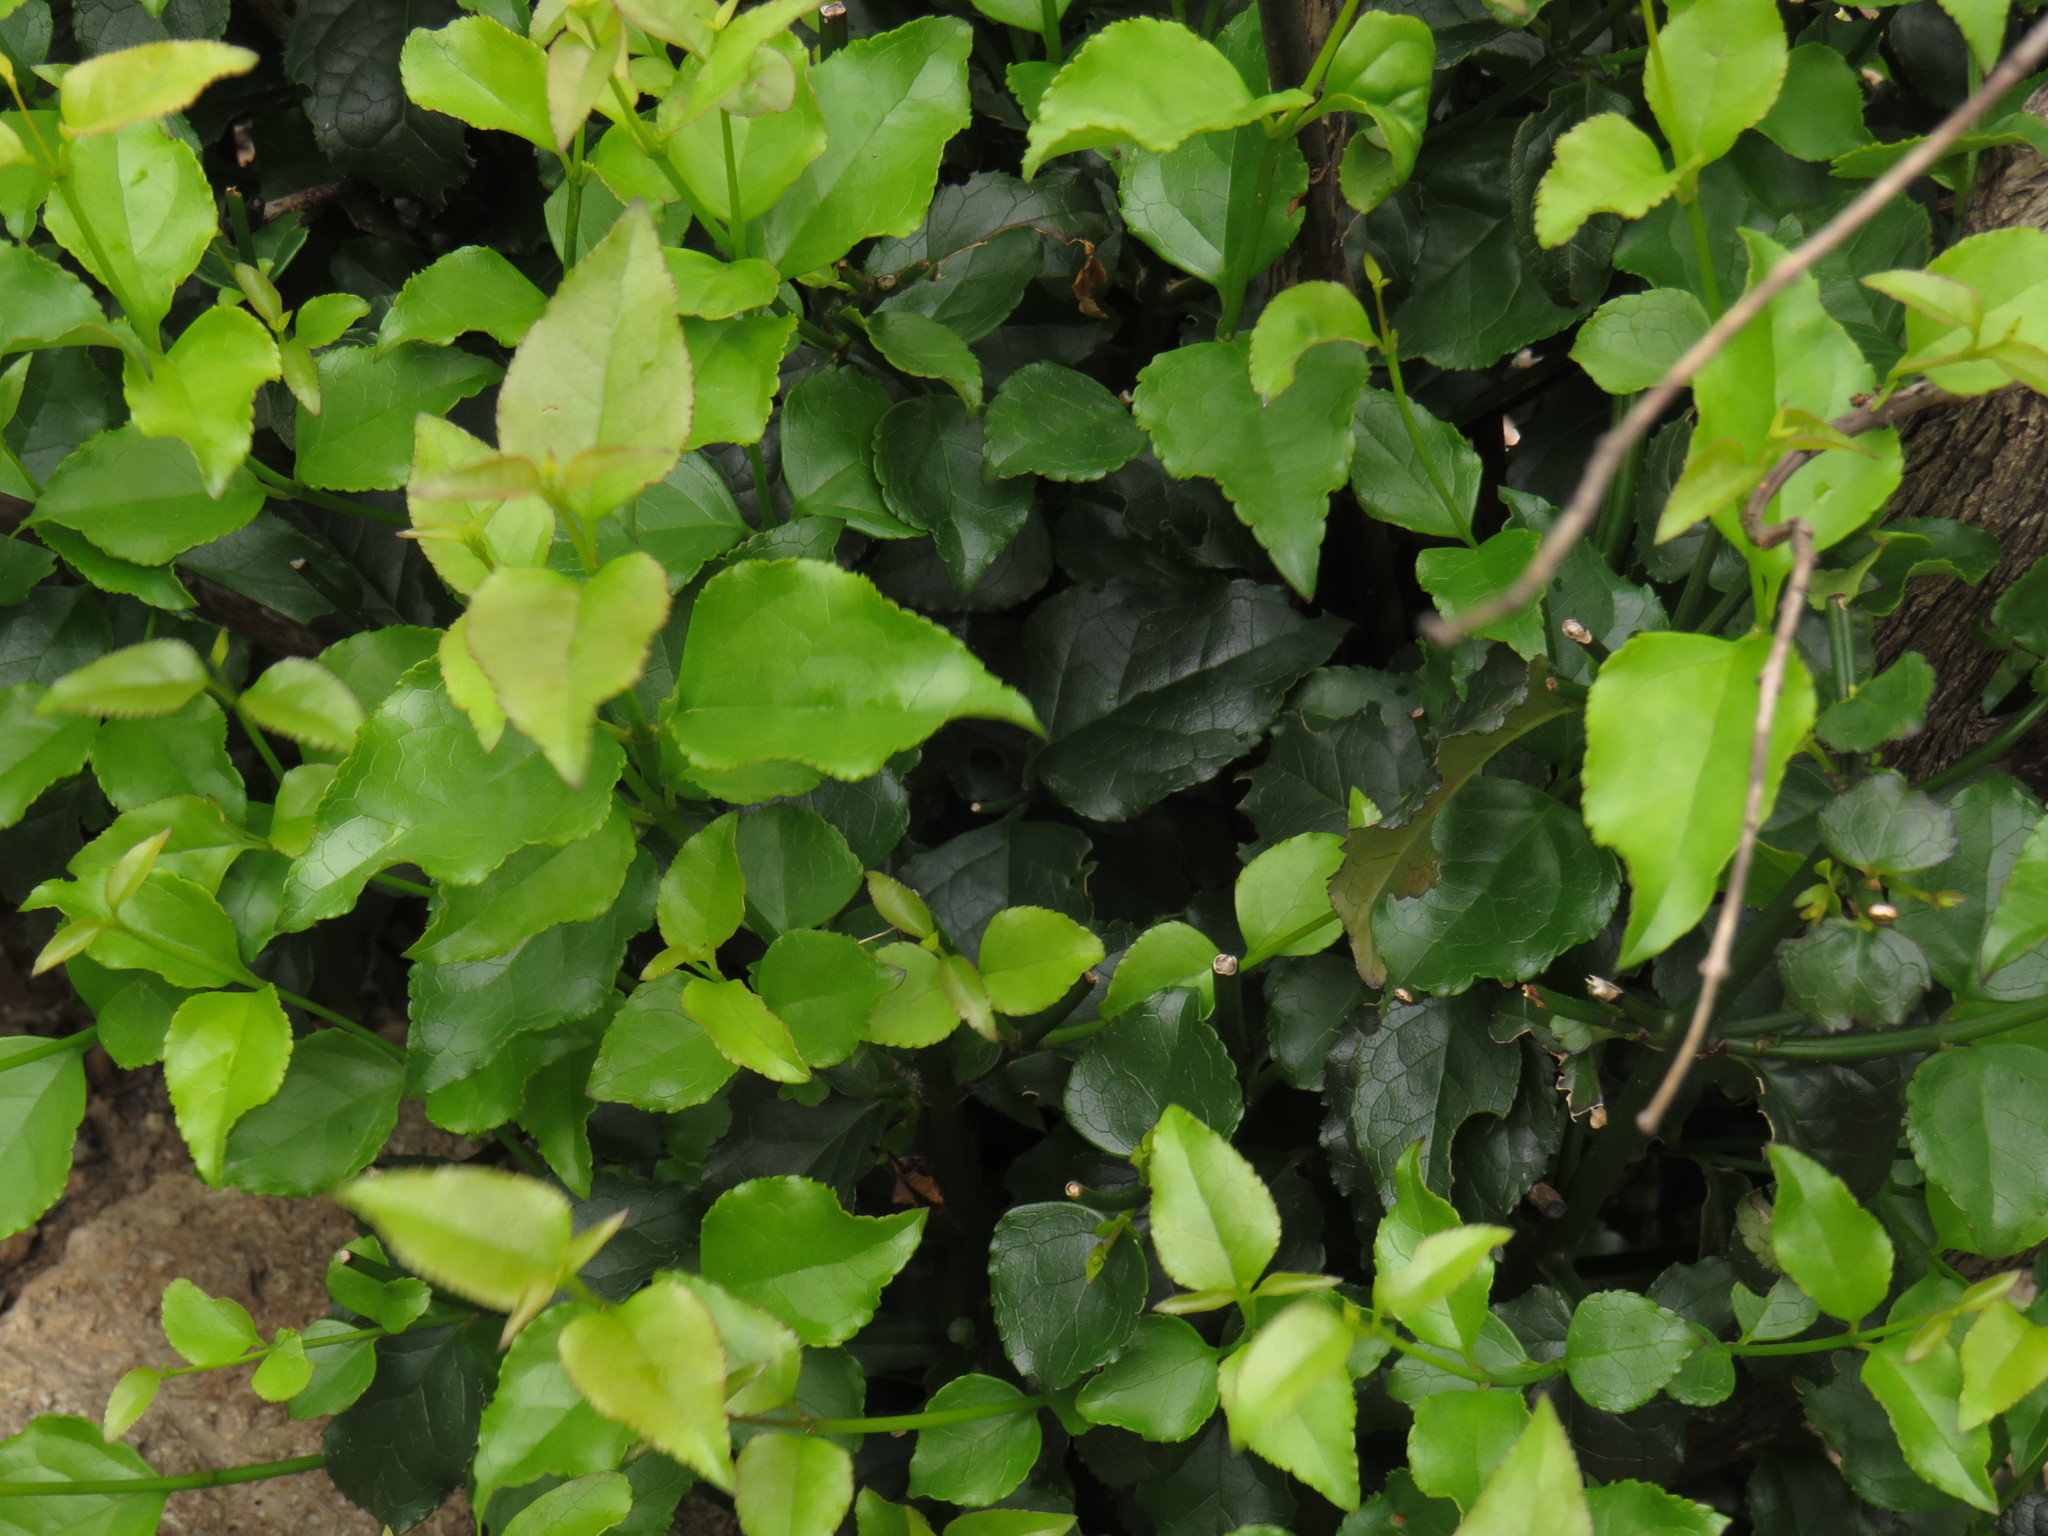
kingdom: Plantae
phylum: Tracheophyta
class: Magnoliopsida
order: Lamiales
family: Stilbaceae
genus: Halleria
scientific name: Halleria lucida
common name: Tree fuschia
